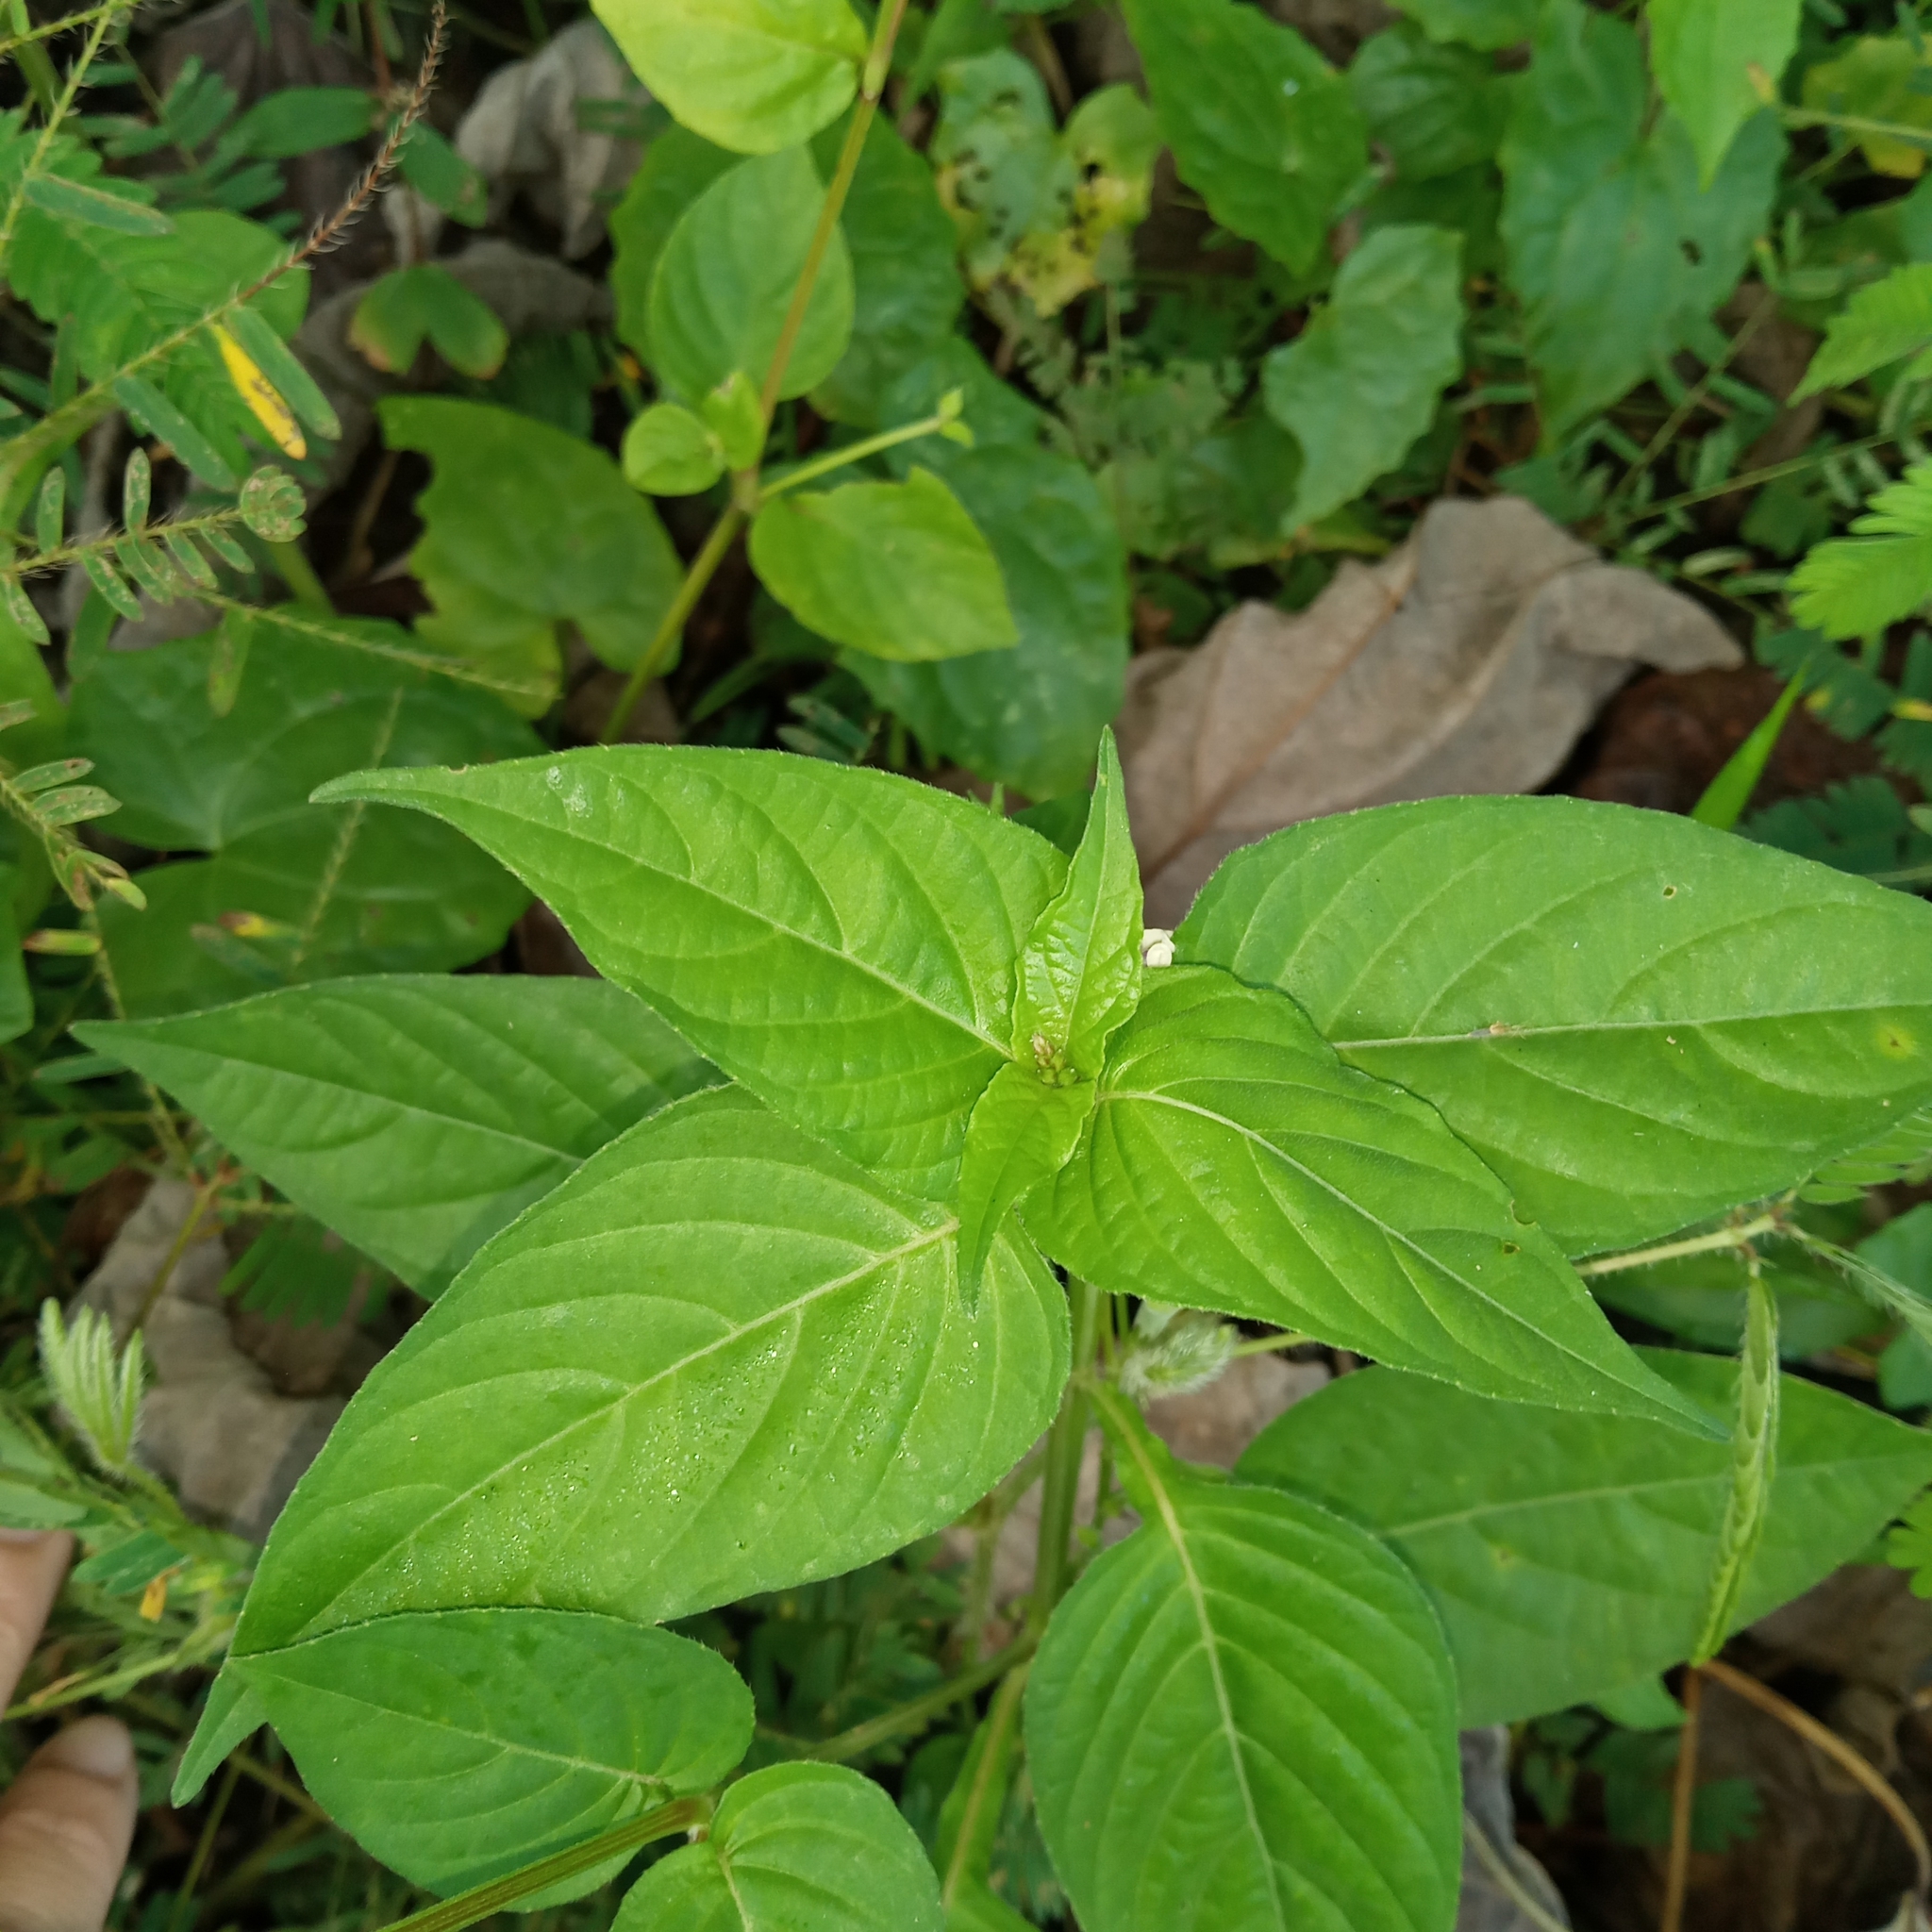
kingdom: Plantae
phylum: Tracheophyta
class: Magnoliopsida
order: Lamiales
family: Acanthaceae
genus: Asystasia
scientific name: Asystasia intrusa
